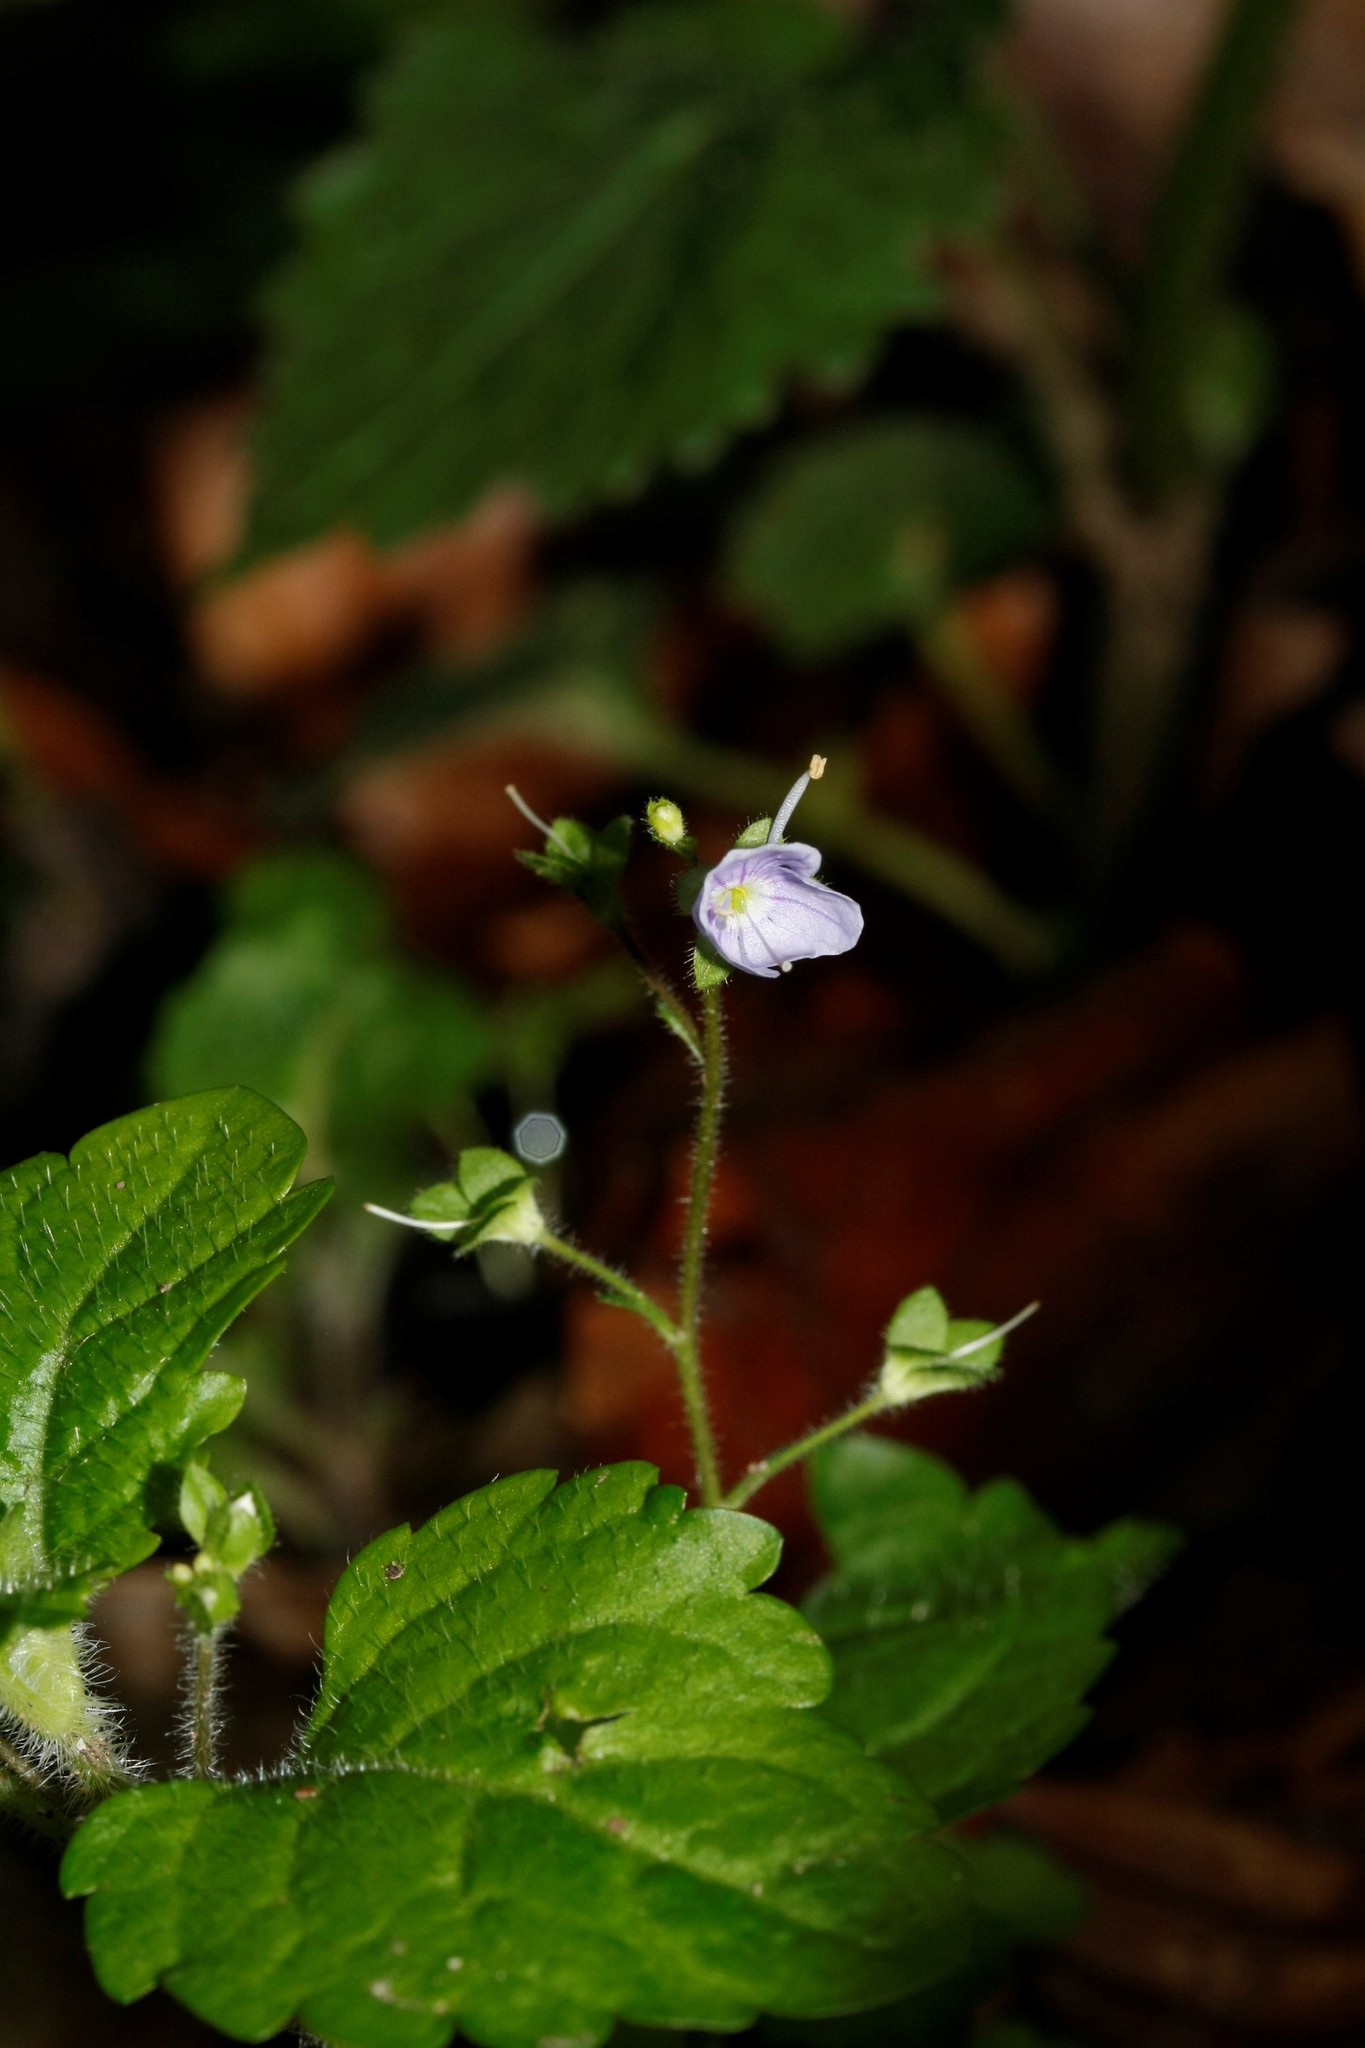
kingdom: Plantae
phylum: Tracheophyta
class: Magnoliopsida
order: Lamiales
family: Plantaginaceae
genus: Veronica
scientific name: Veronica montana
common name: Wood speedwell
